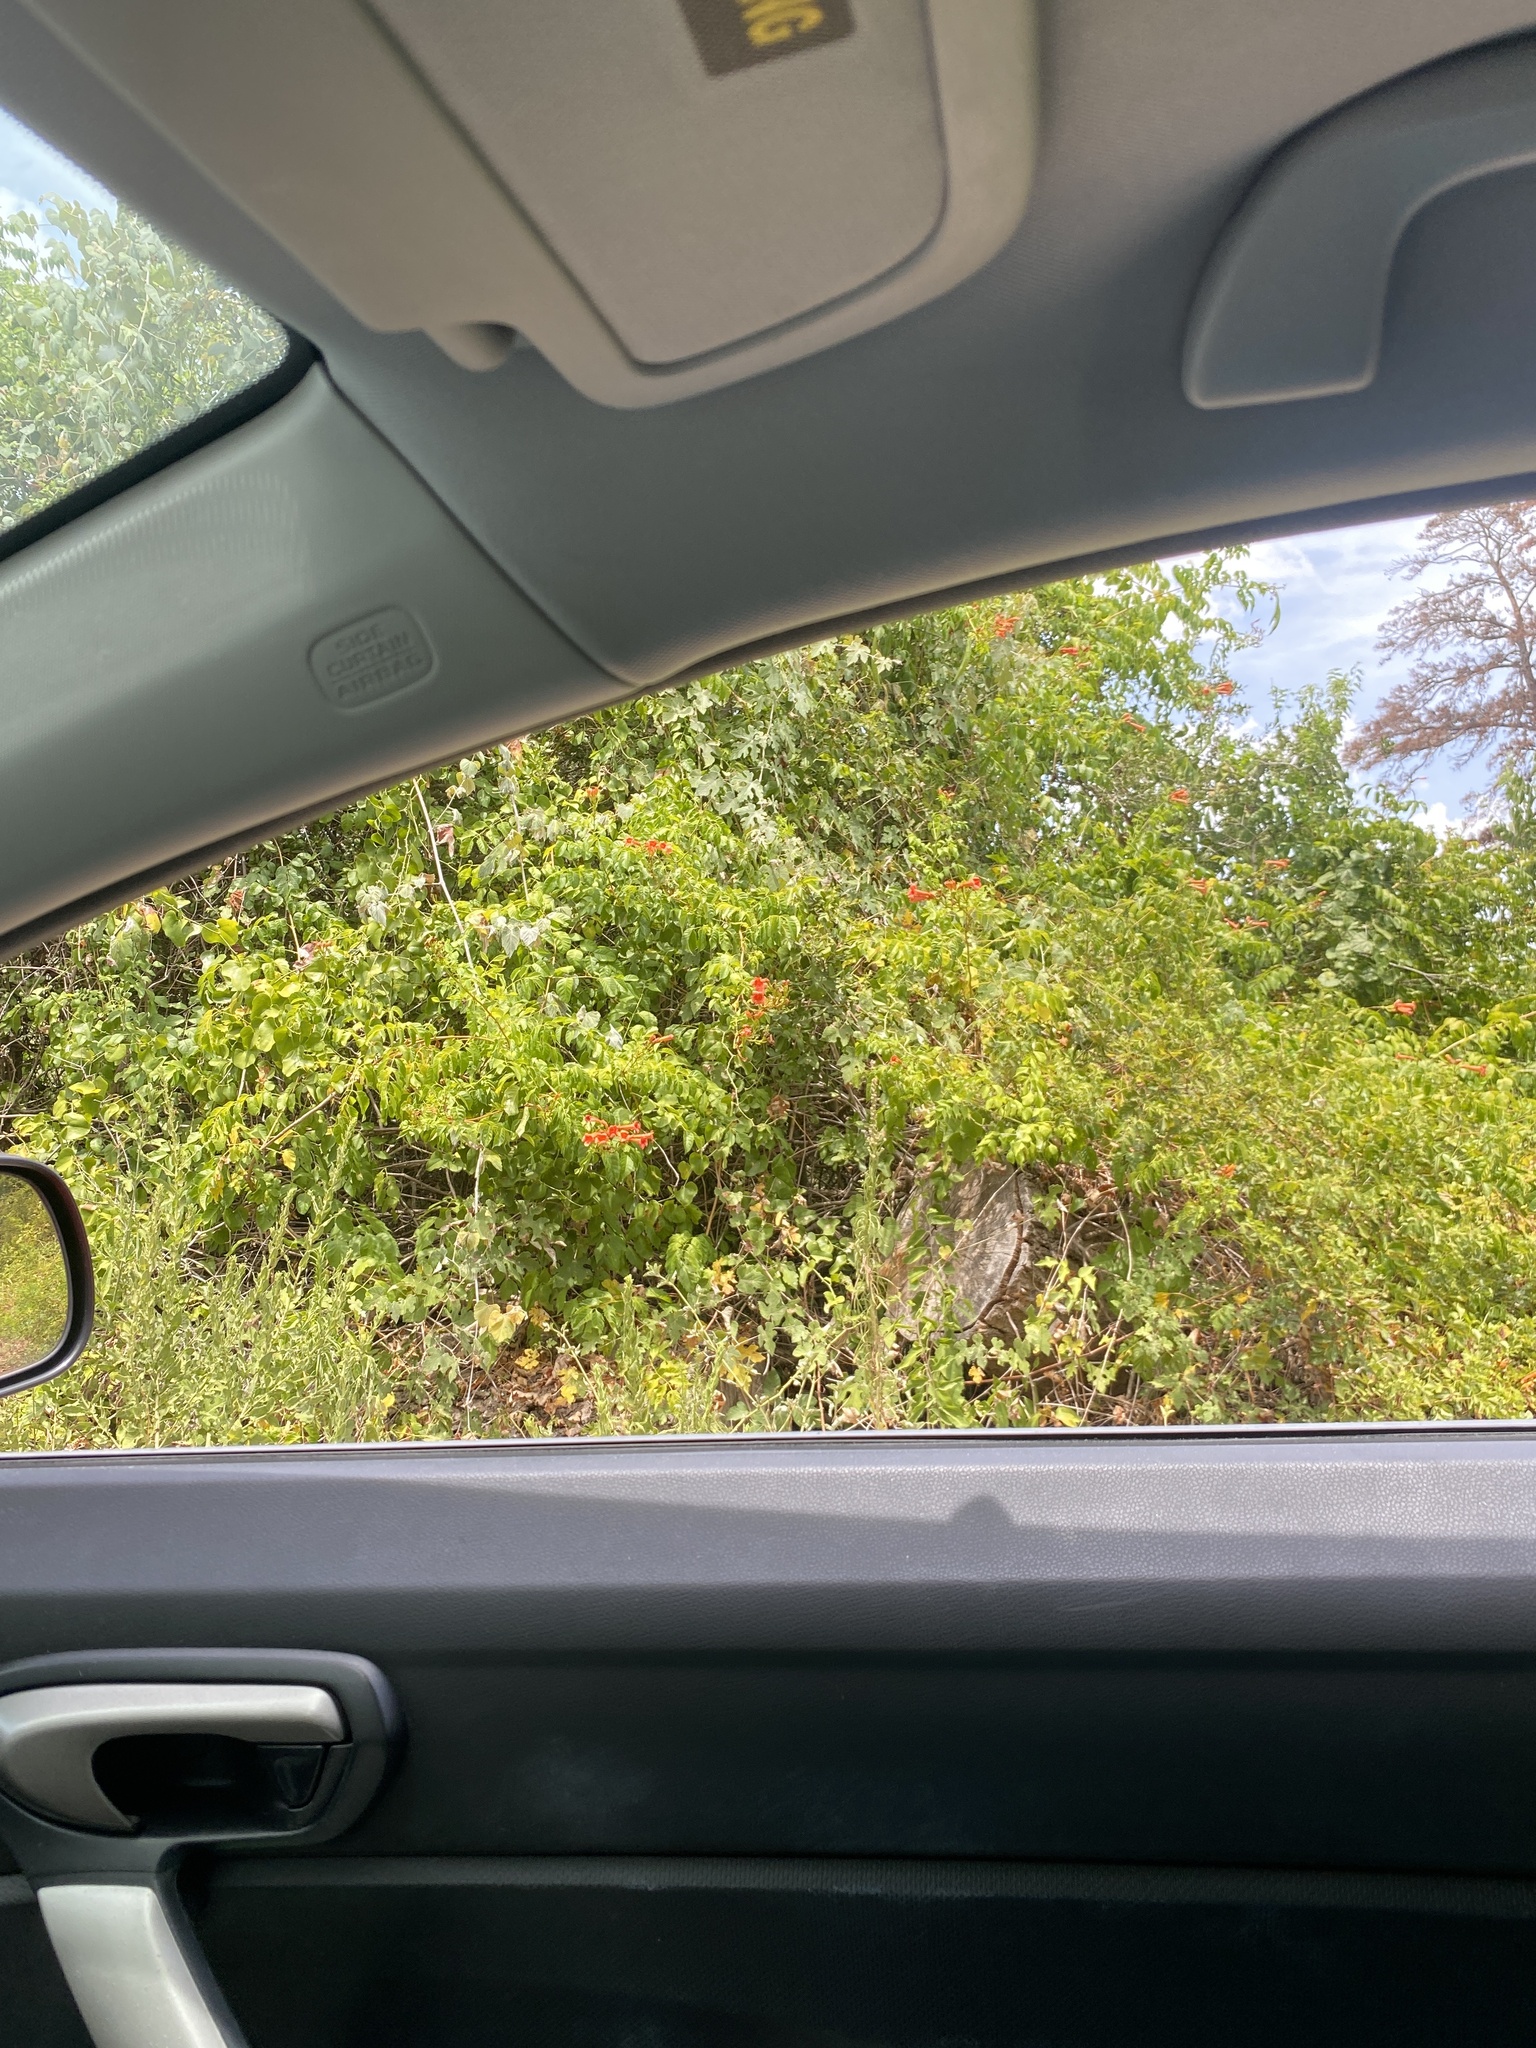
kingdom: Plantae
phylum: Tracheophyta
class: Magnoliopsida
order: Lamiales
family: Bignoniaceae
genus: Campsis
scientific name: Campsis radicans
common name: Trumpet-creeper
